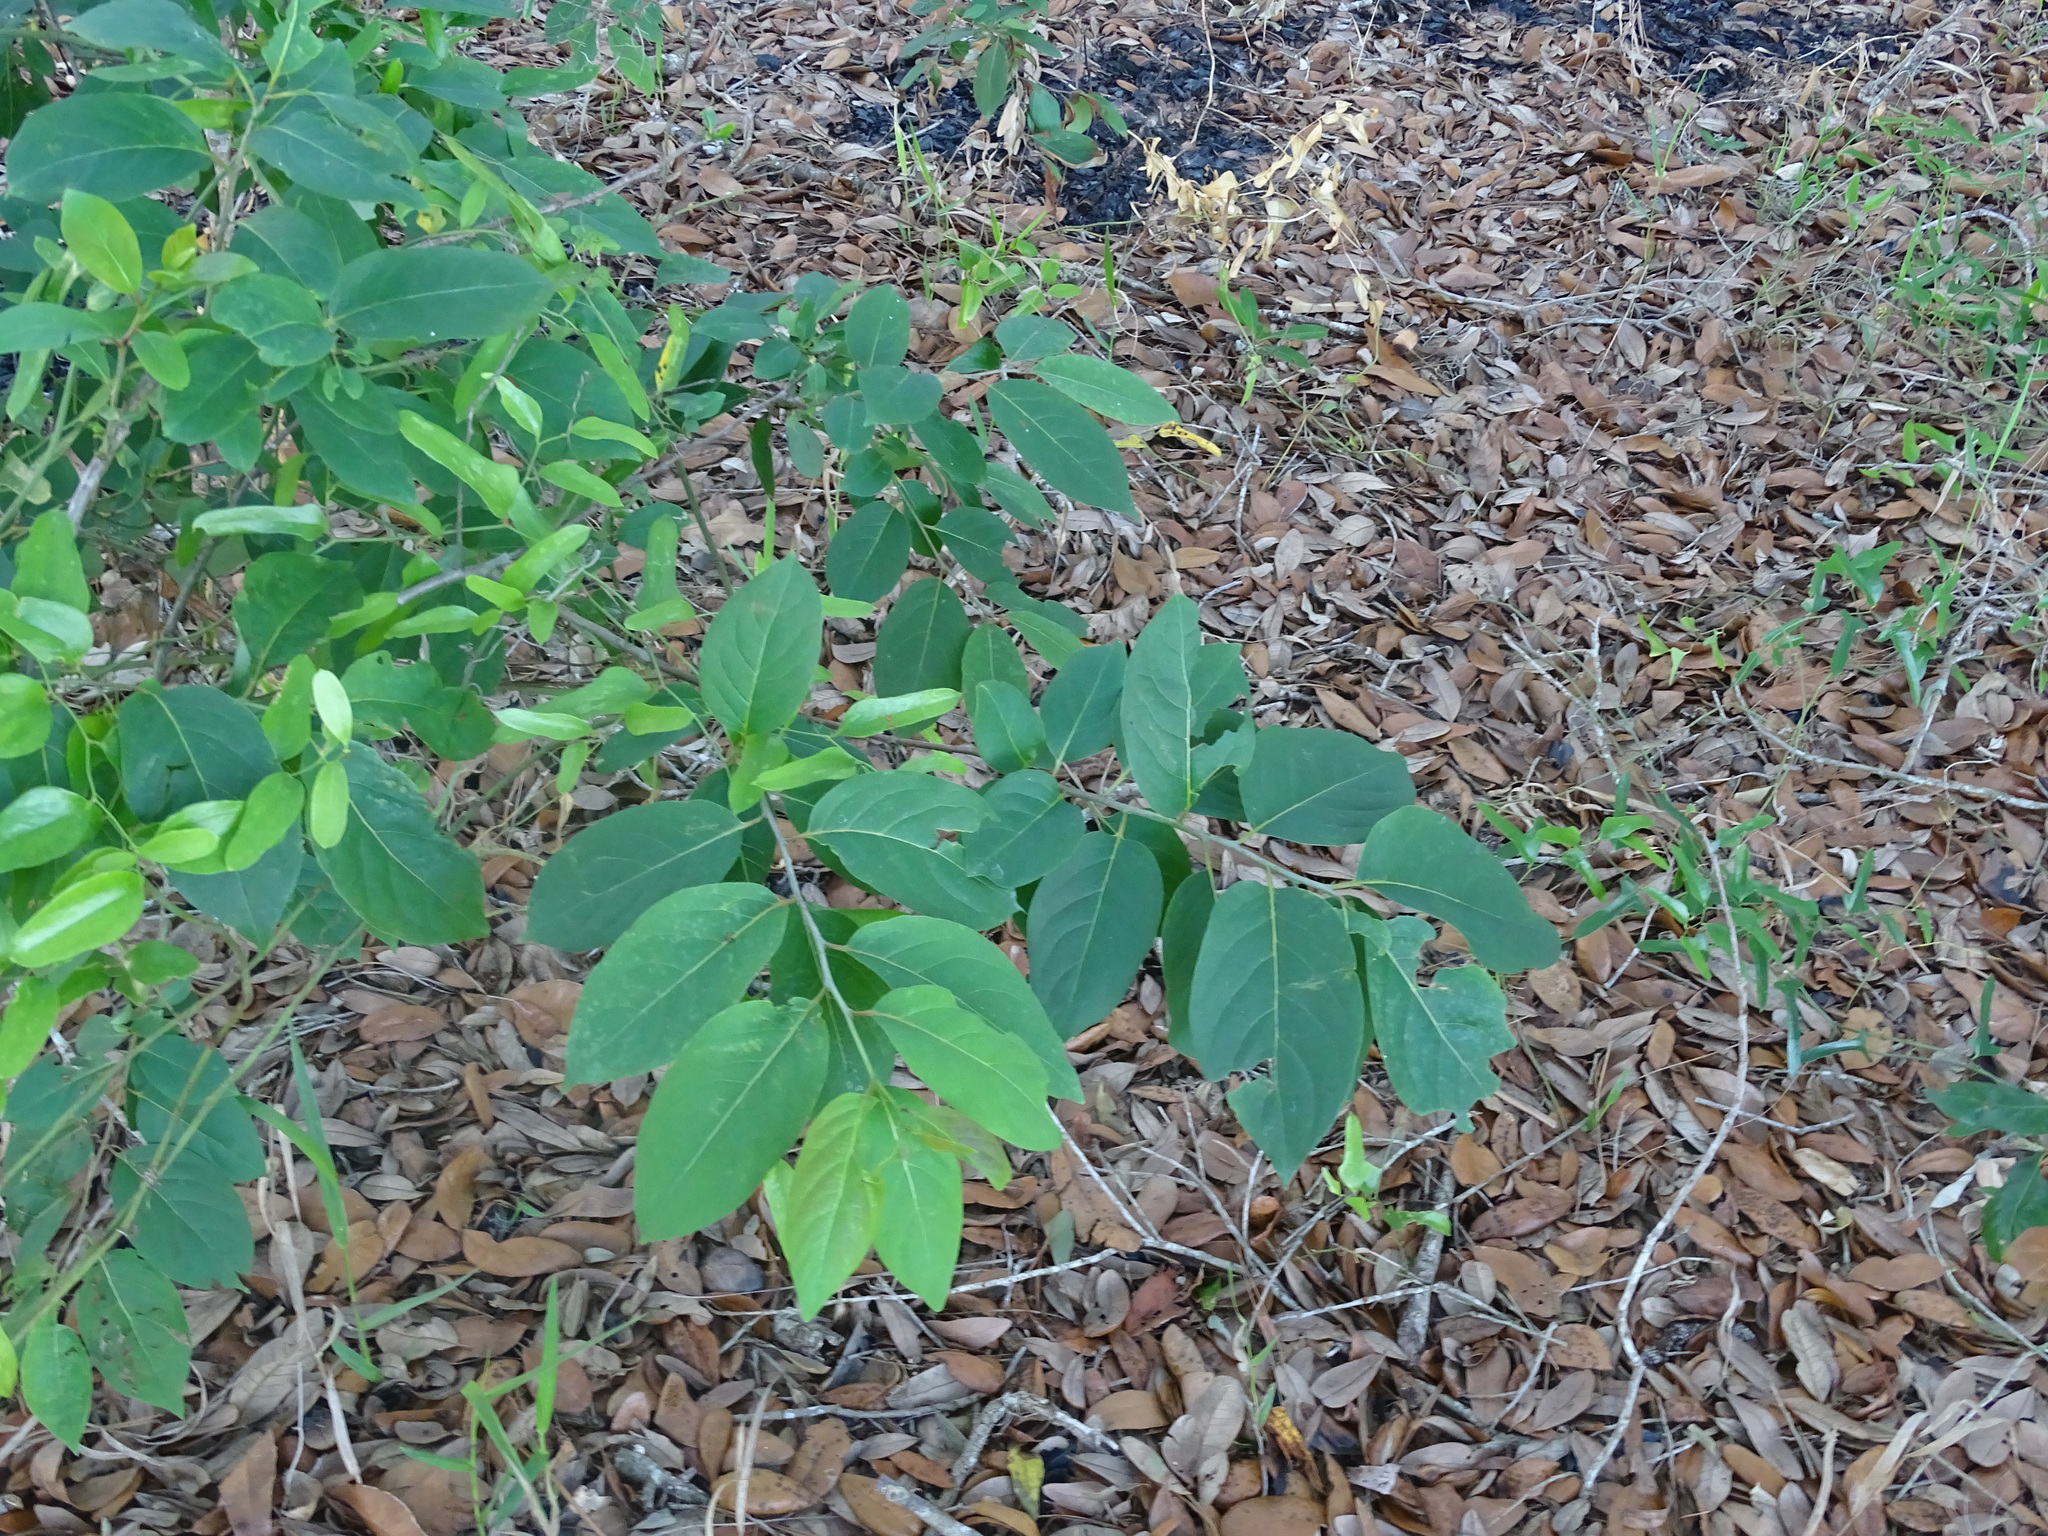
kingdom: Plantae
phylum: Tracheophyta
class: Magnoliopsida
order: Ericales
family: Ebenaceae
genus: Diospyros
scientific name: Diospyros virginiana
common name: Persimmon
